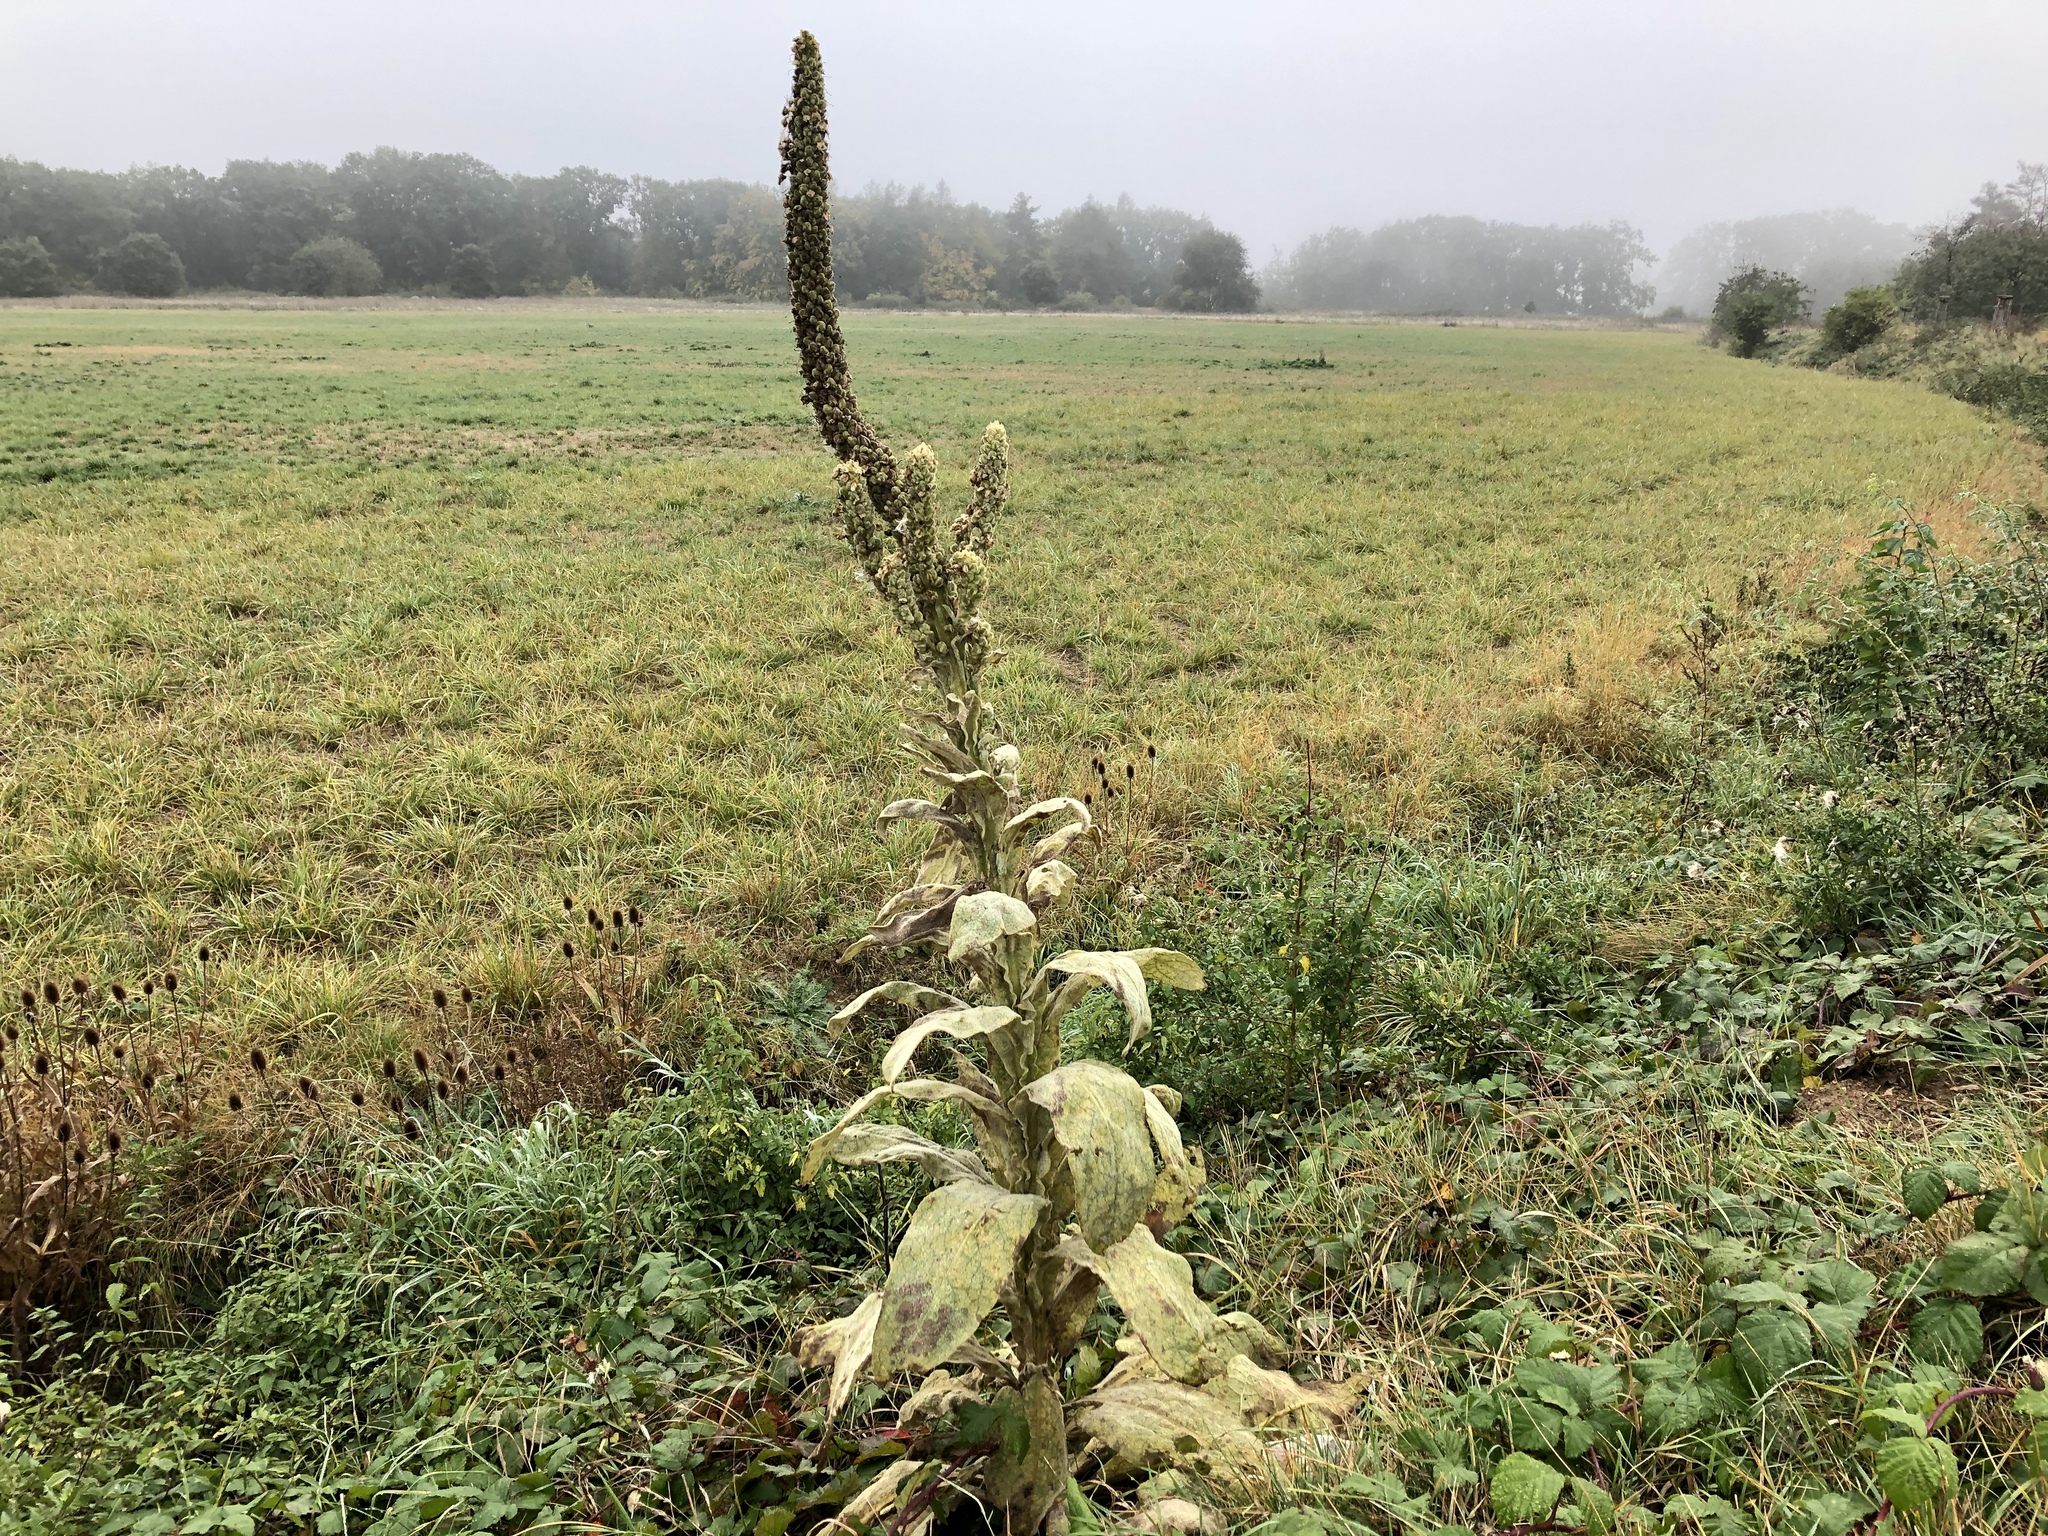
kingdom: Plantae
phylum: Tracheophyta
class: Magnoliopsida
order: Lamiales
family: Scrophulariaceae
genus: Verbascum
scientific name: Verbascum thapsus
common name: Common mullein
